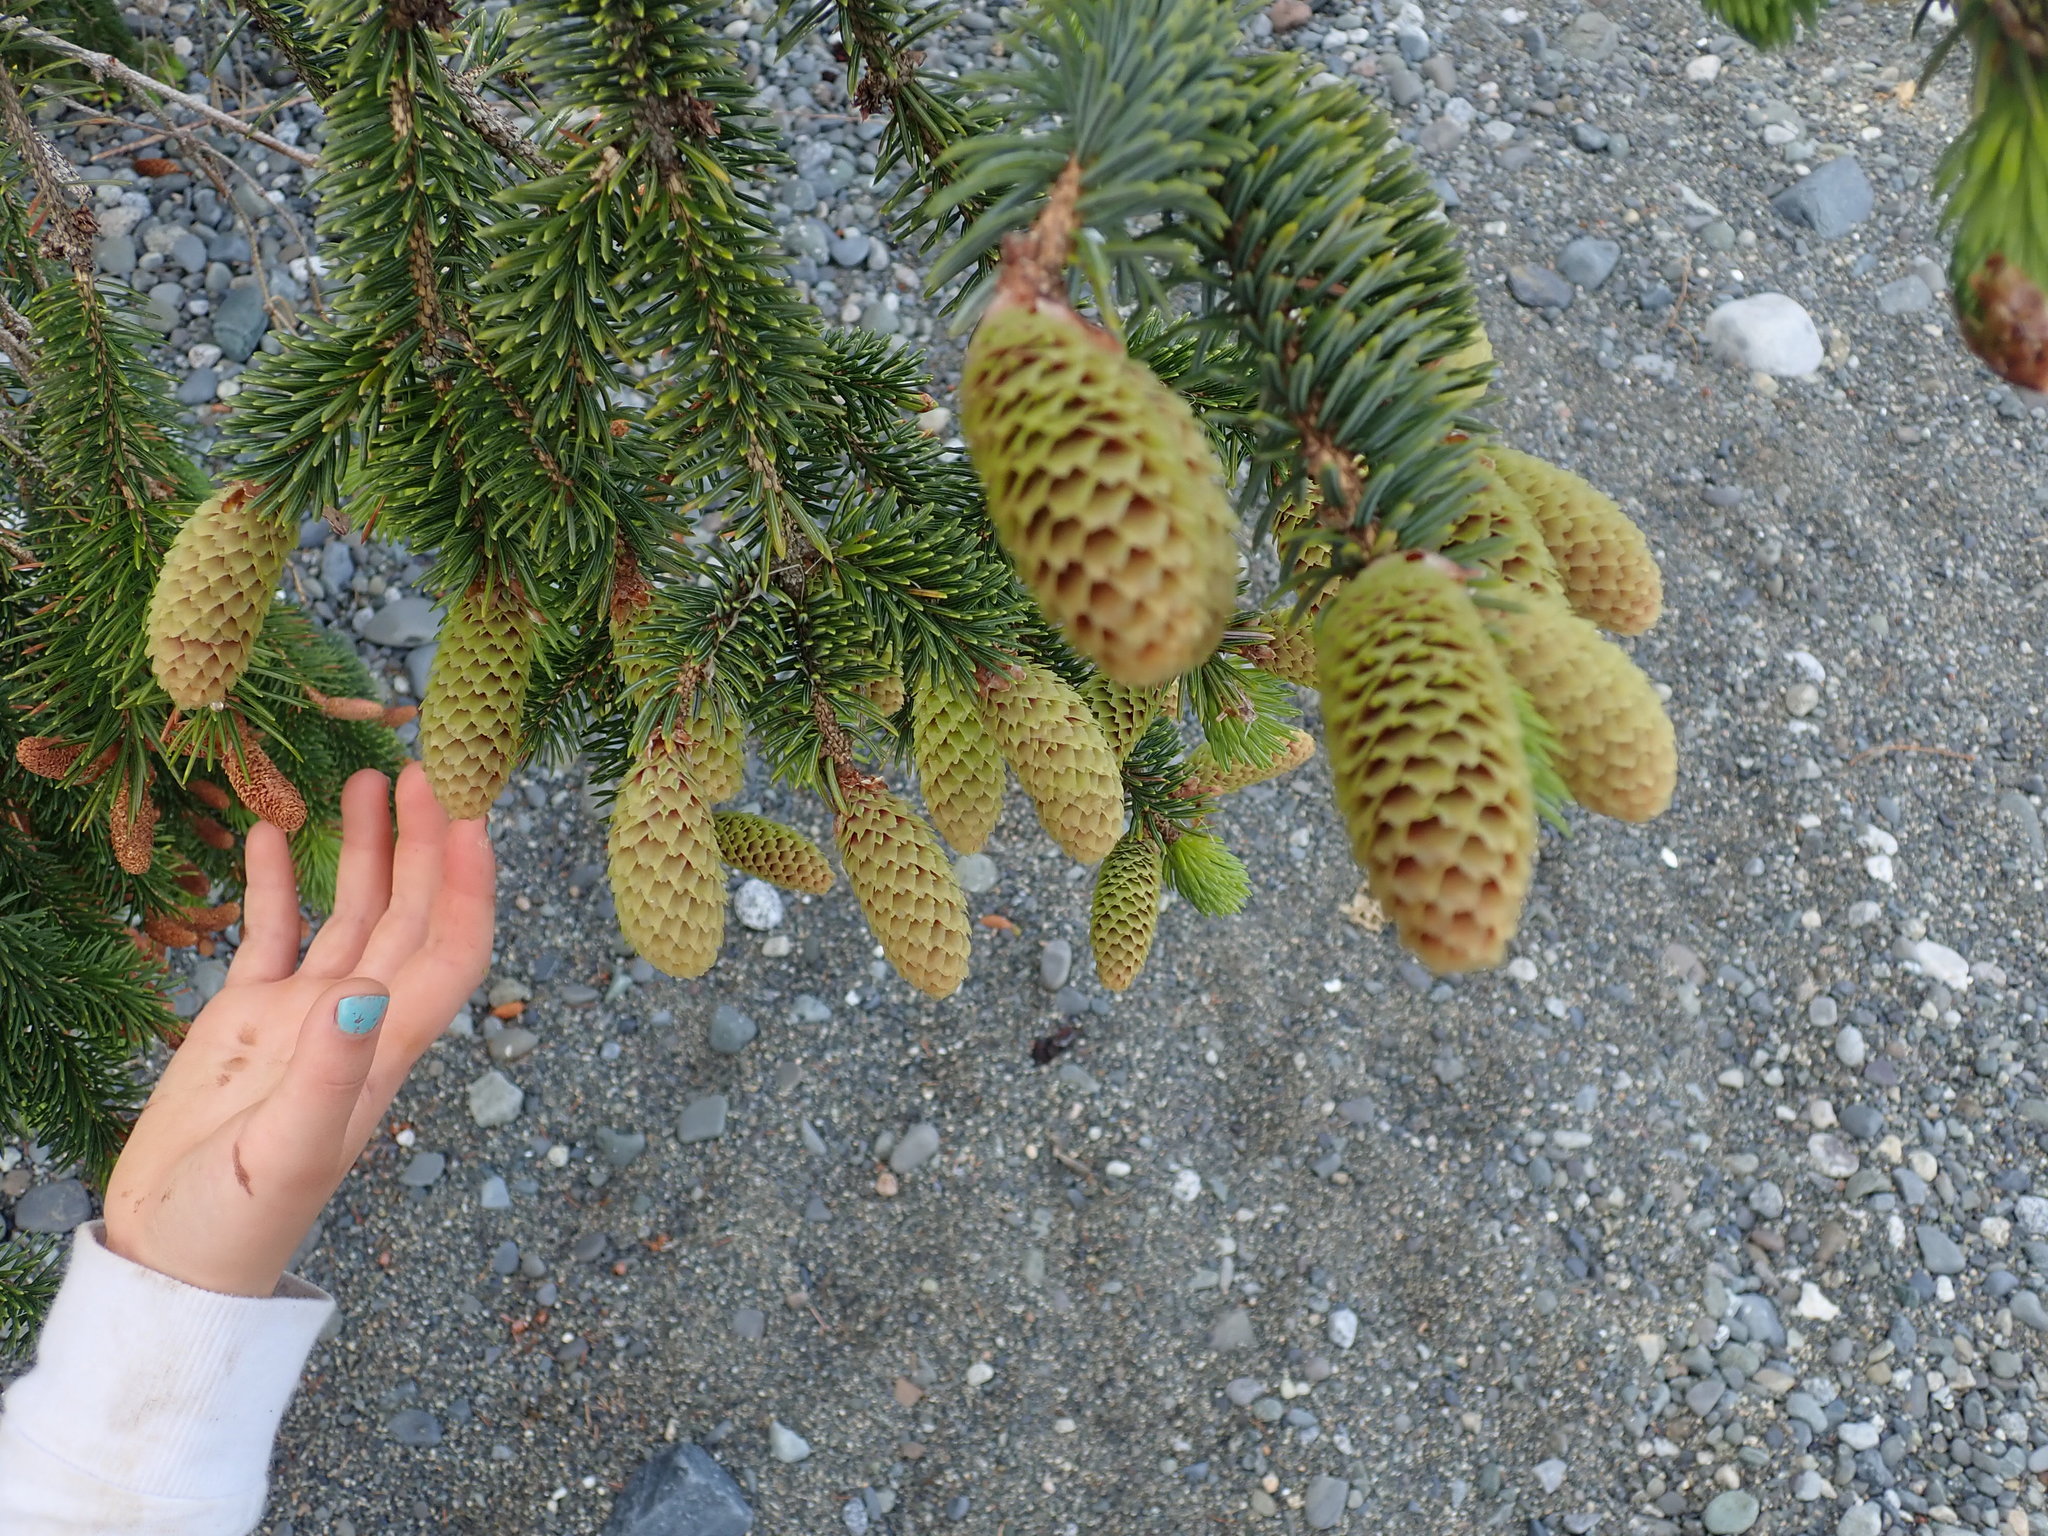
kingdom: Plantae
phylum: Tracheophyta
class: Pinopsida
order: Pinales
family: Pinaceae
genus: Picea
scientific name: Picea sitchensis
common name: Sitka spruce
